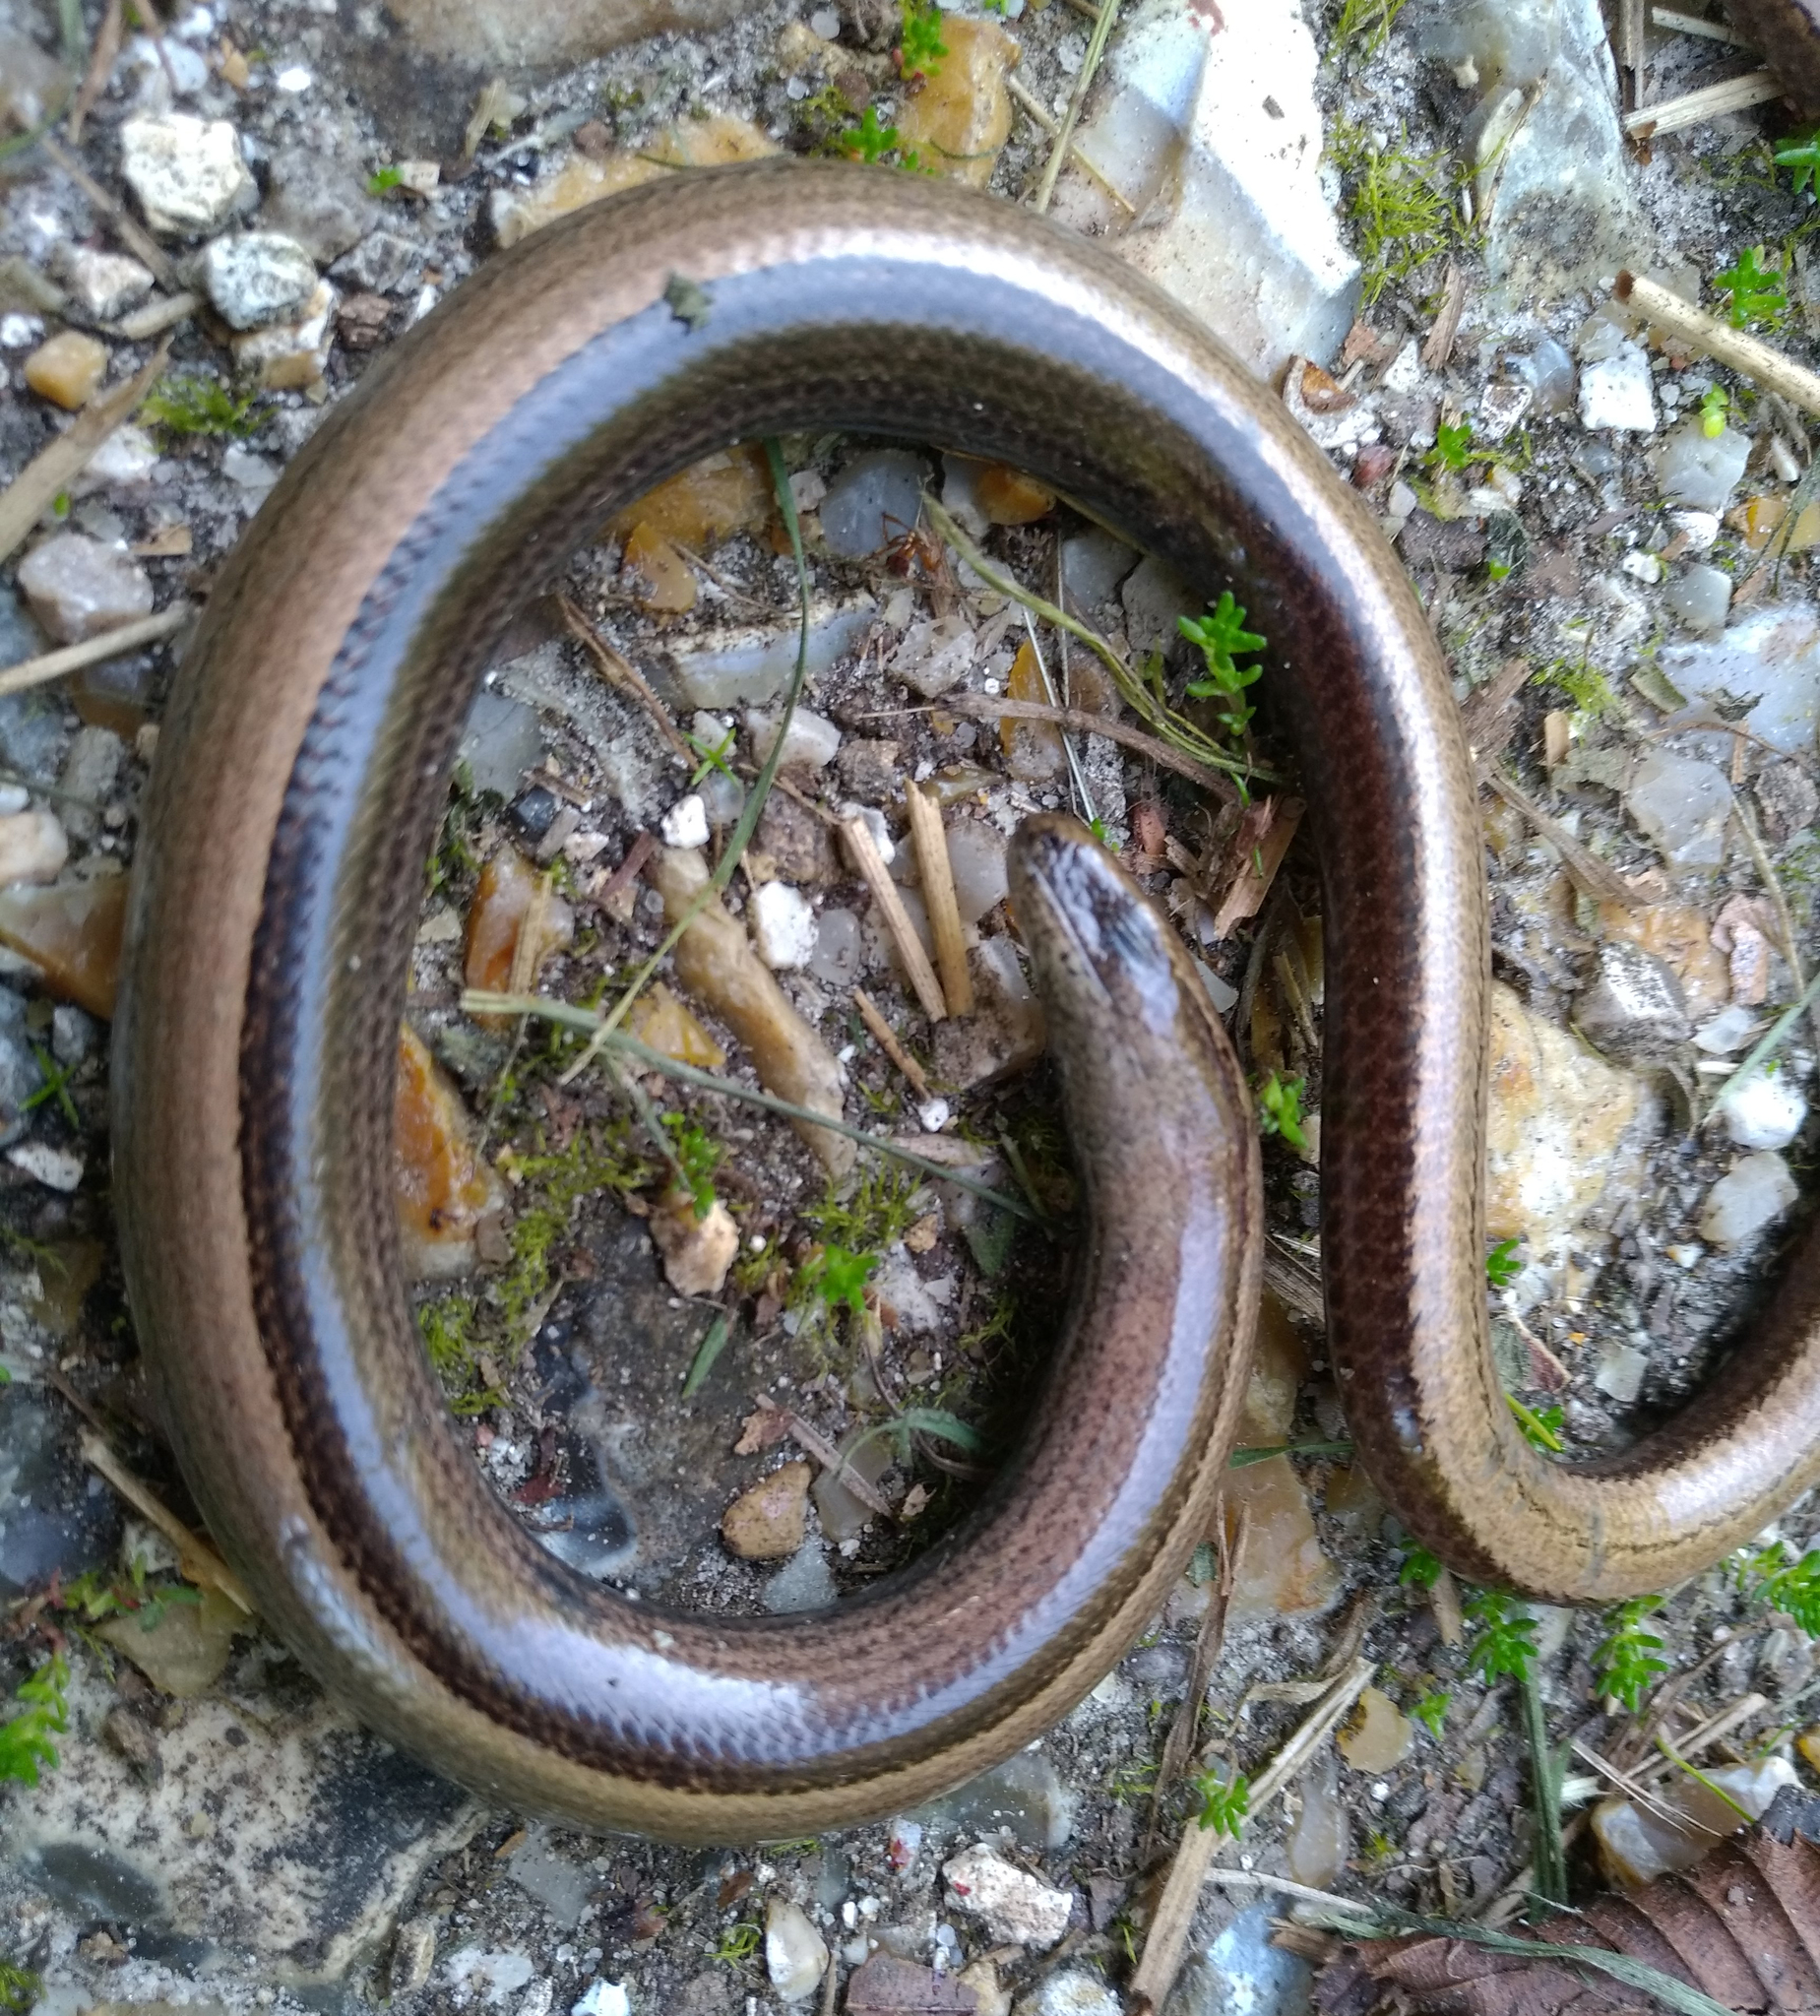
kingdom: Animalia
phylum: Chordata
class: Squamata
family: Anguidae
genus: Anguis
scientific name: Anguis fragilis
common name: Slow worm
